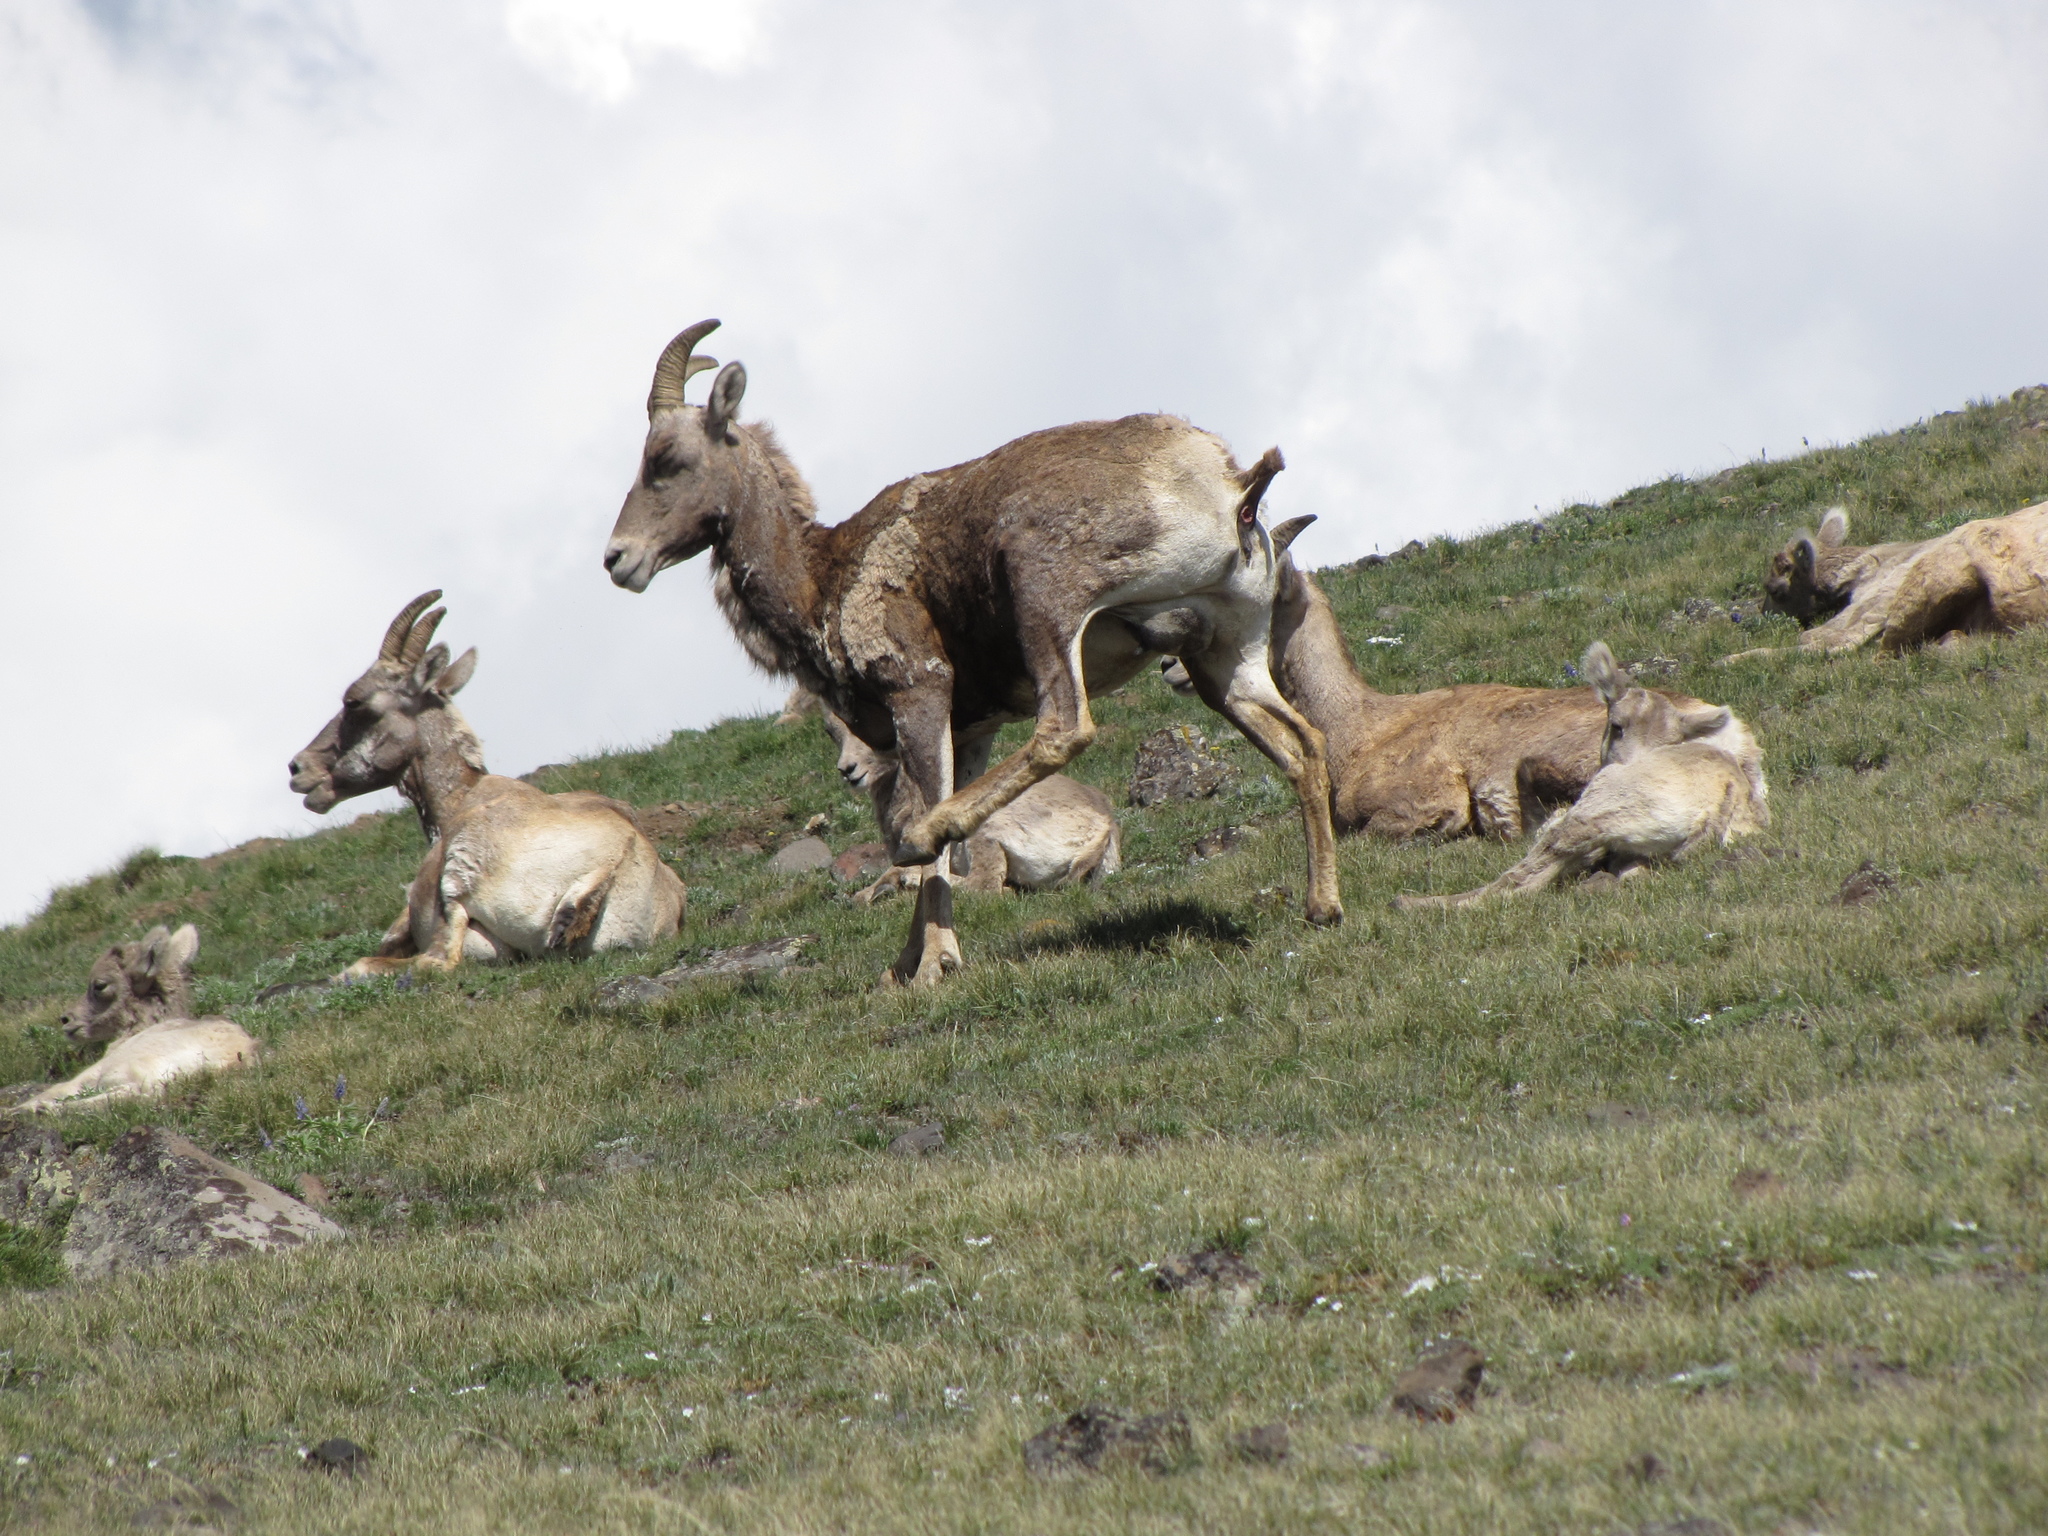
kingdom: Animalia
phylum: Chordata
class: Mammalia
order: Artiodactyla
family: Bovidae
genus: Ovis
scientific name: Ovis canadensis
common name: Bighorn sheep
